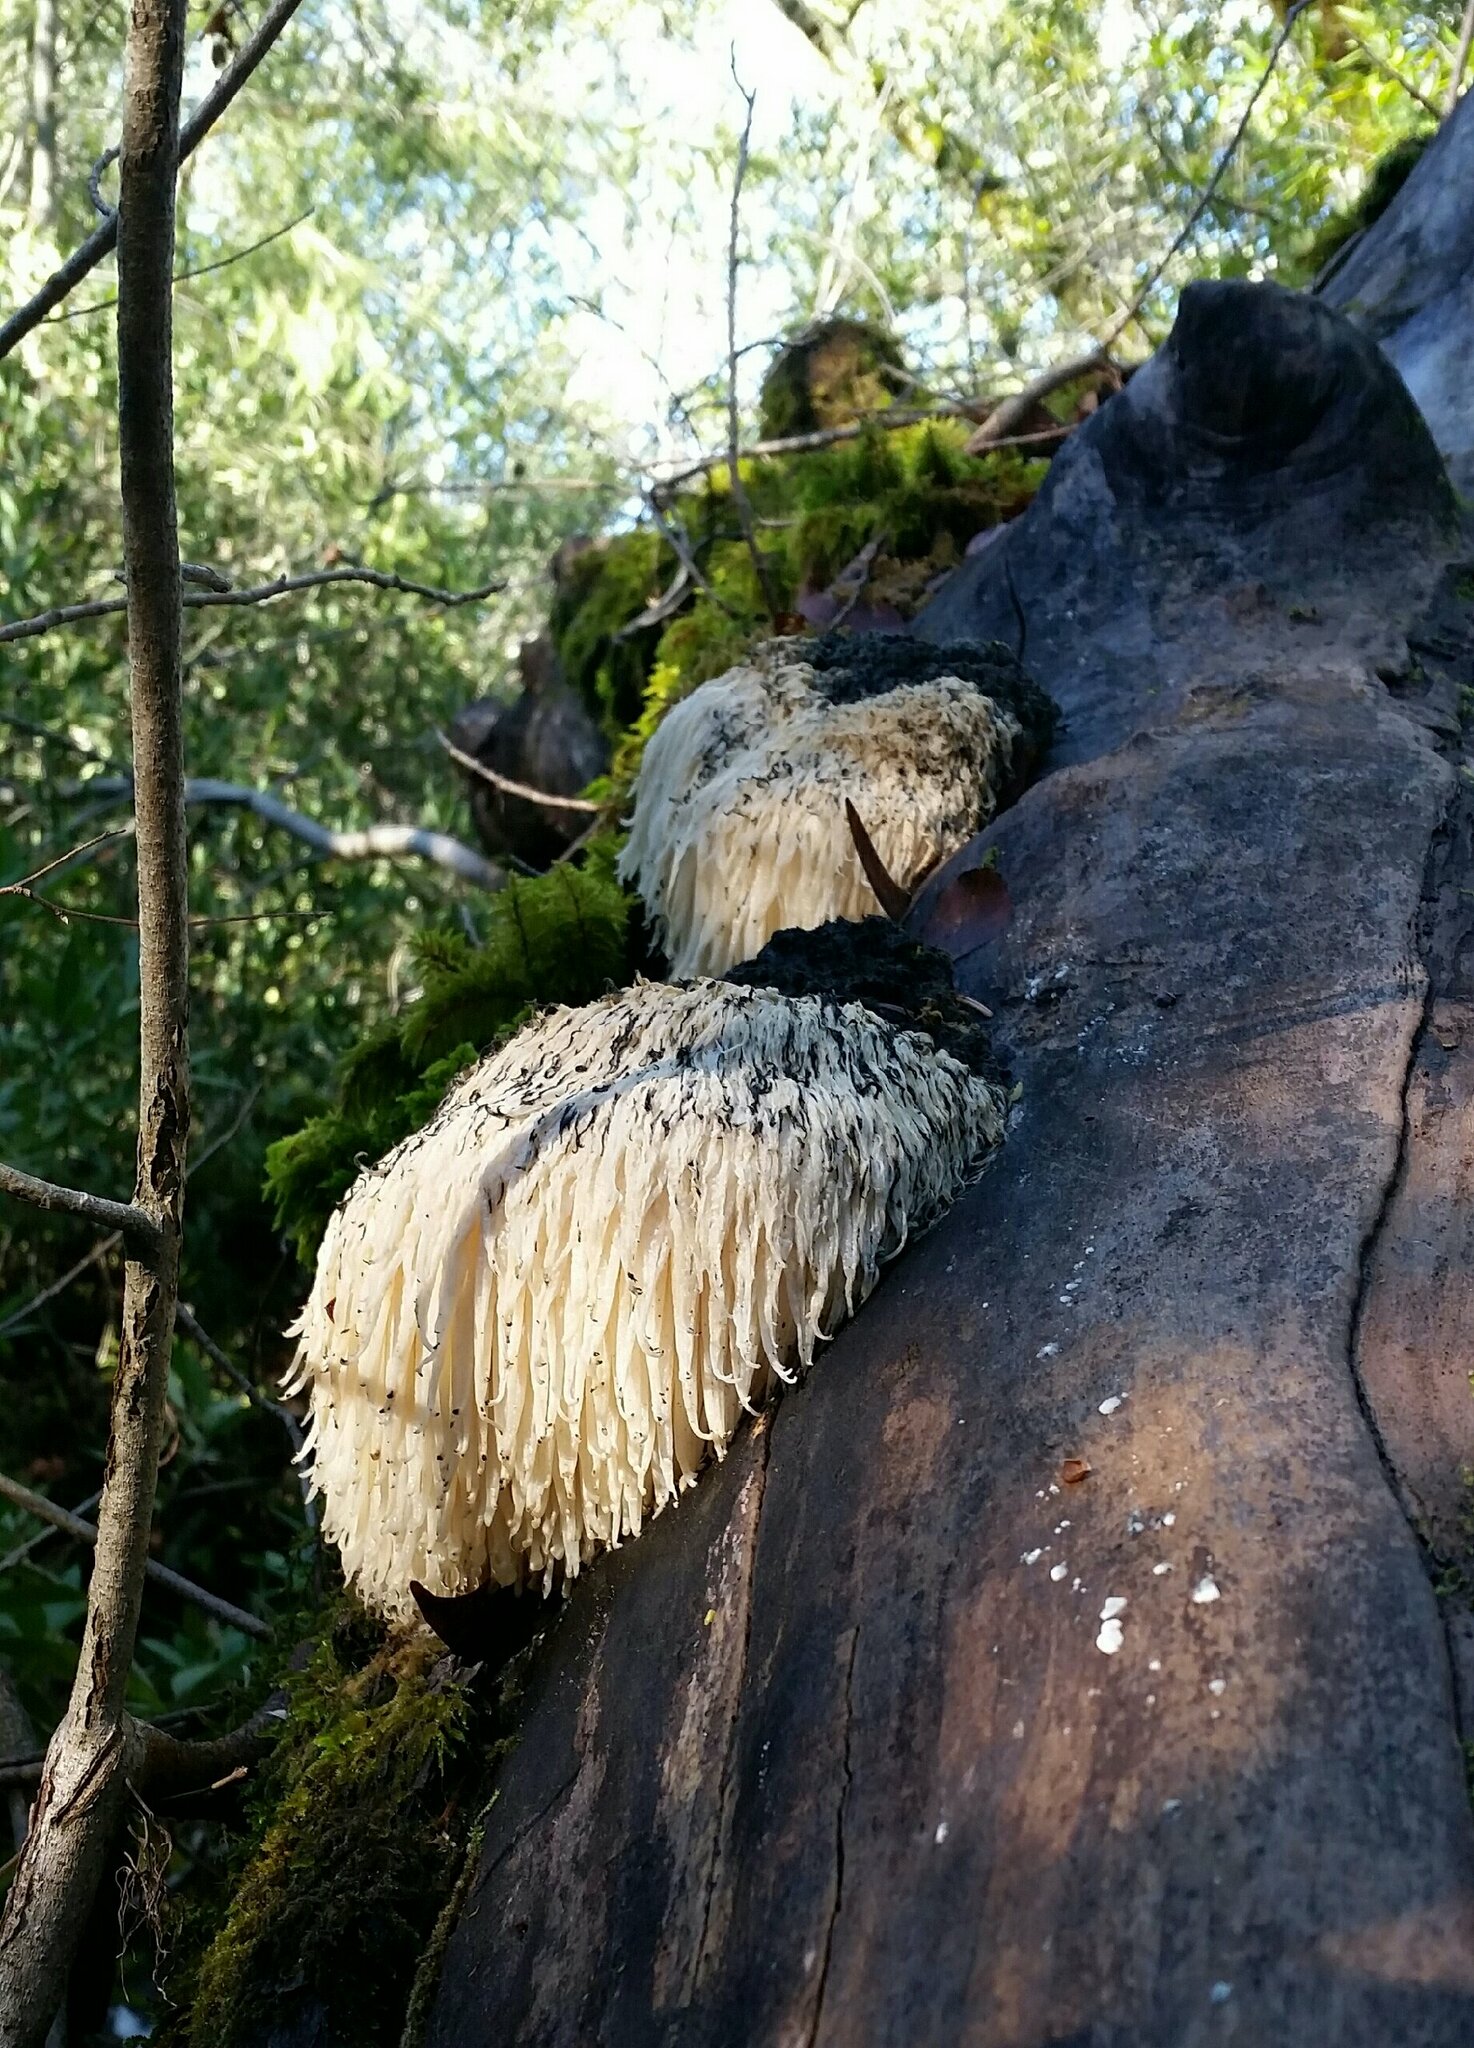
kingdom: Fungi
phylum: Basidiomycota
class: Agaricomycetes
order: Russulales
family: Hericiaceae
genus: Hericium
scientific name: Hericium erinaceus
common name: Bearded tooth
